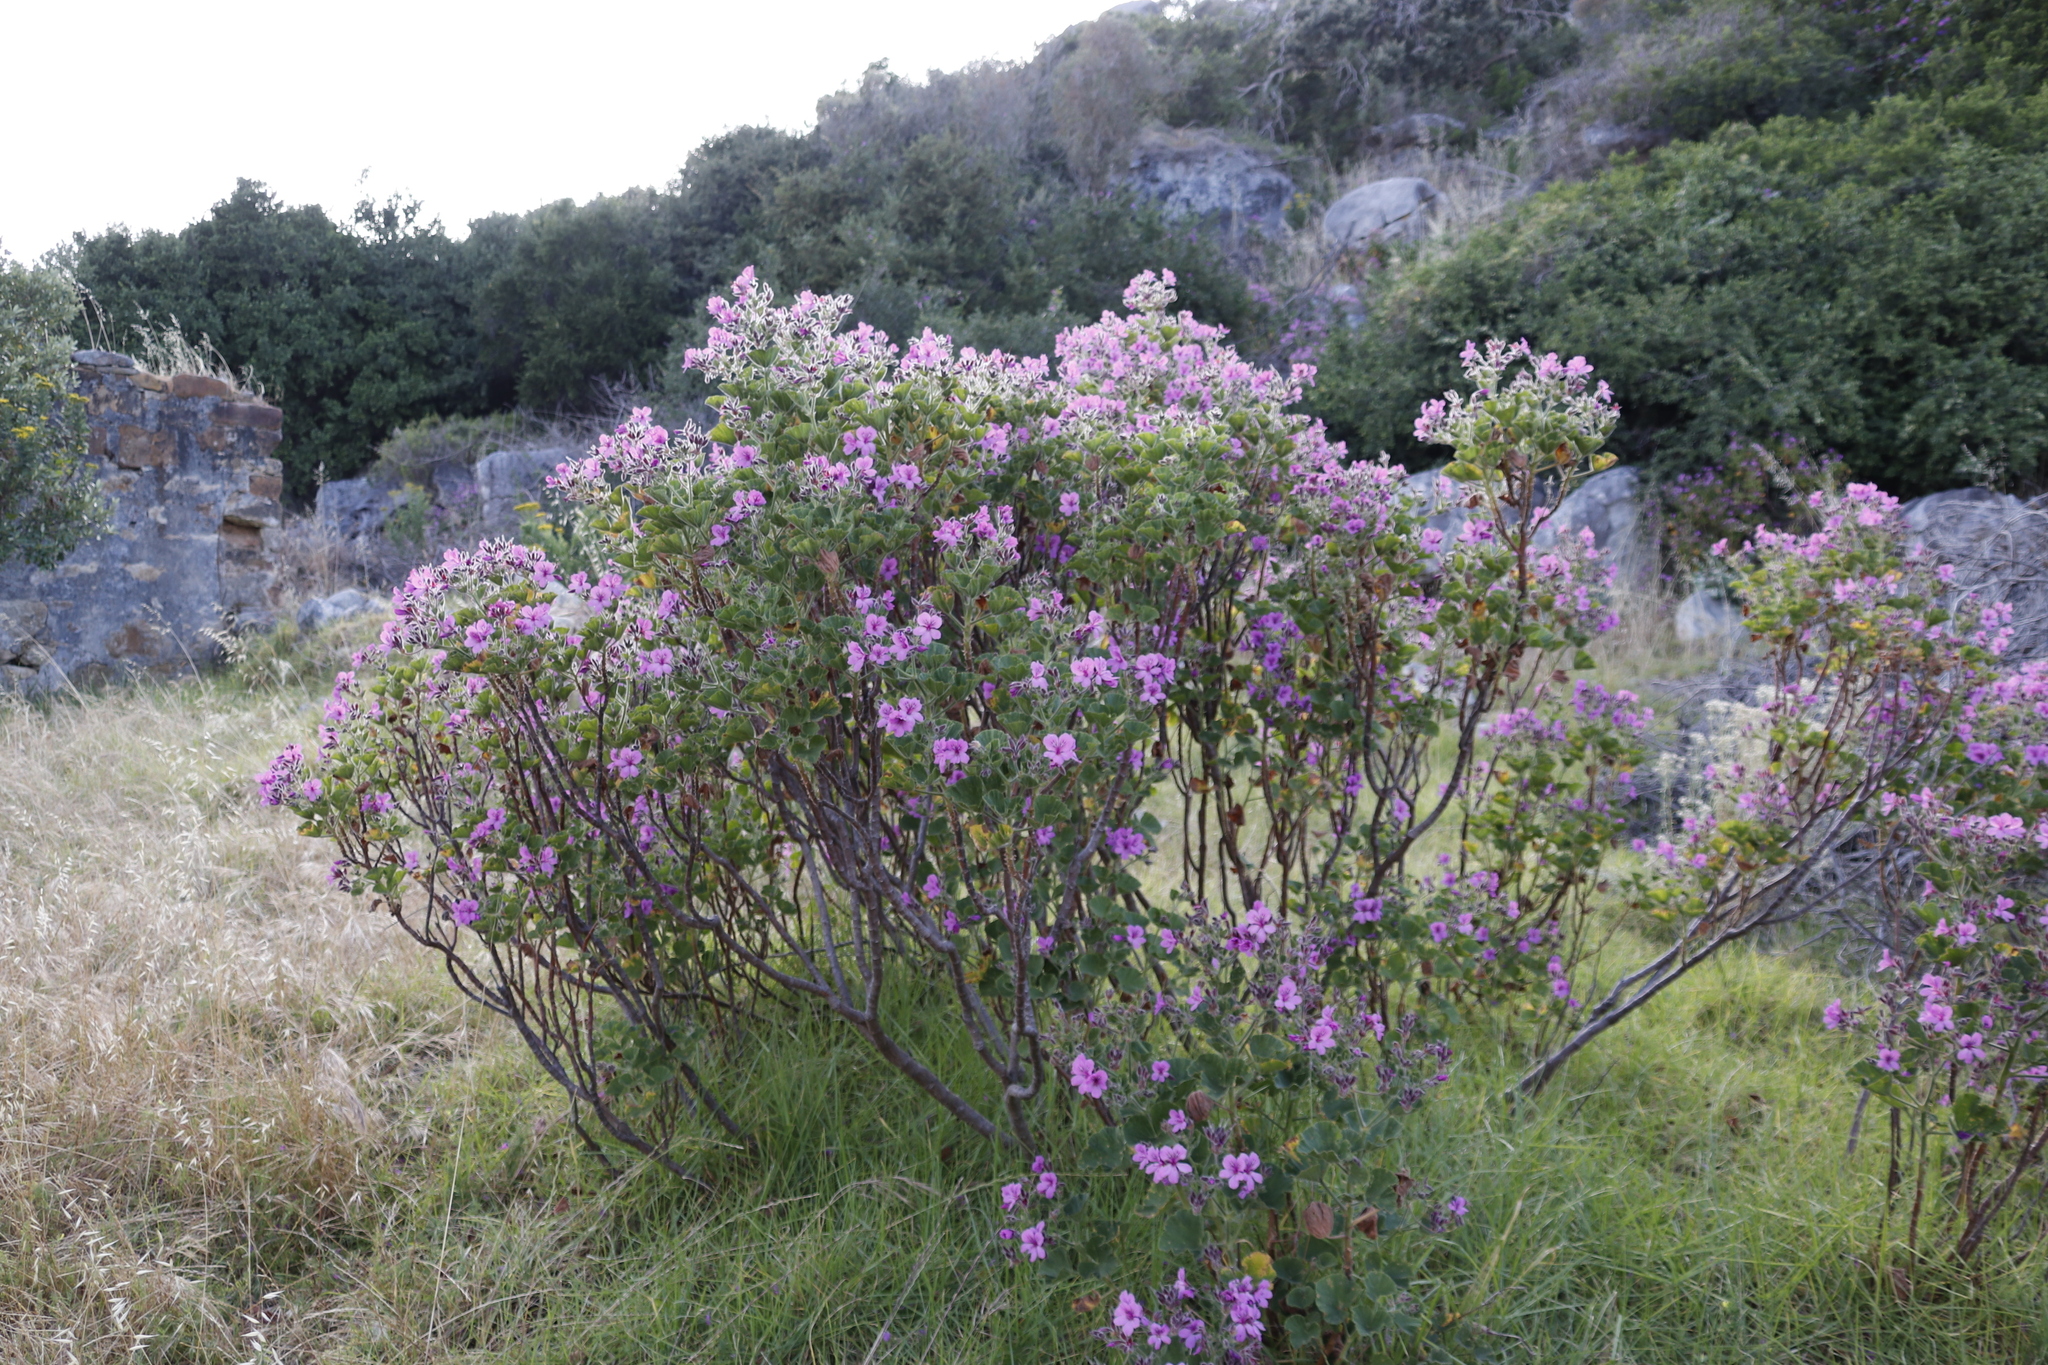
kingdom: Plantae
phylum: Tracheophyta
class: Magnoliopsida
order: Geraniales
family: Geraniaceae
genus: Pelargonium
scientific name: Pelargonium cucullatum
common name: Tree pelargonium
